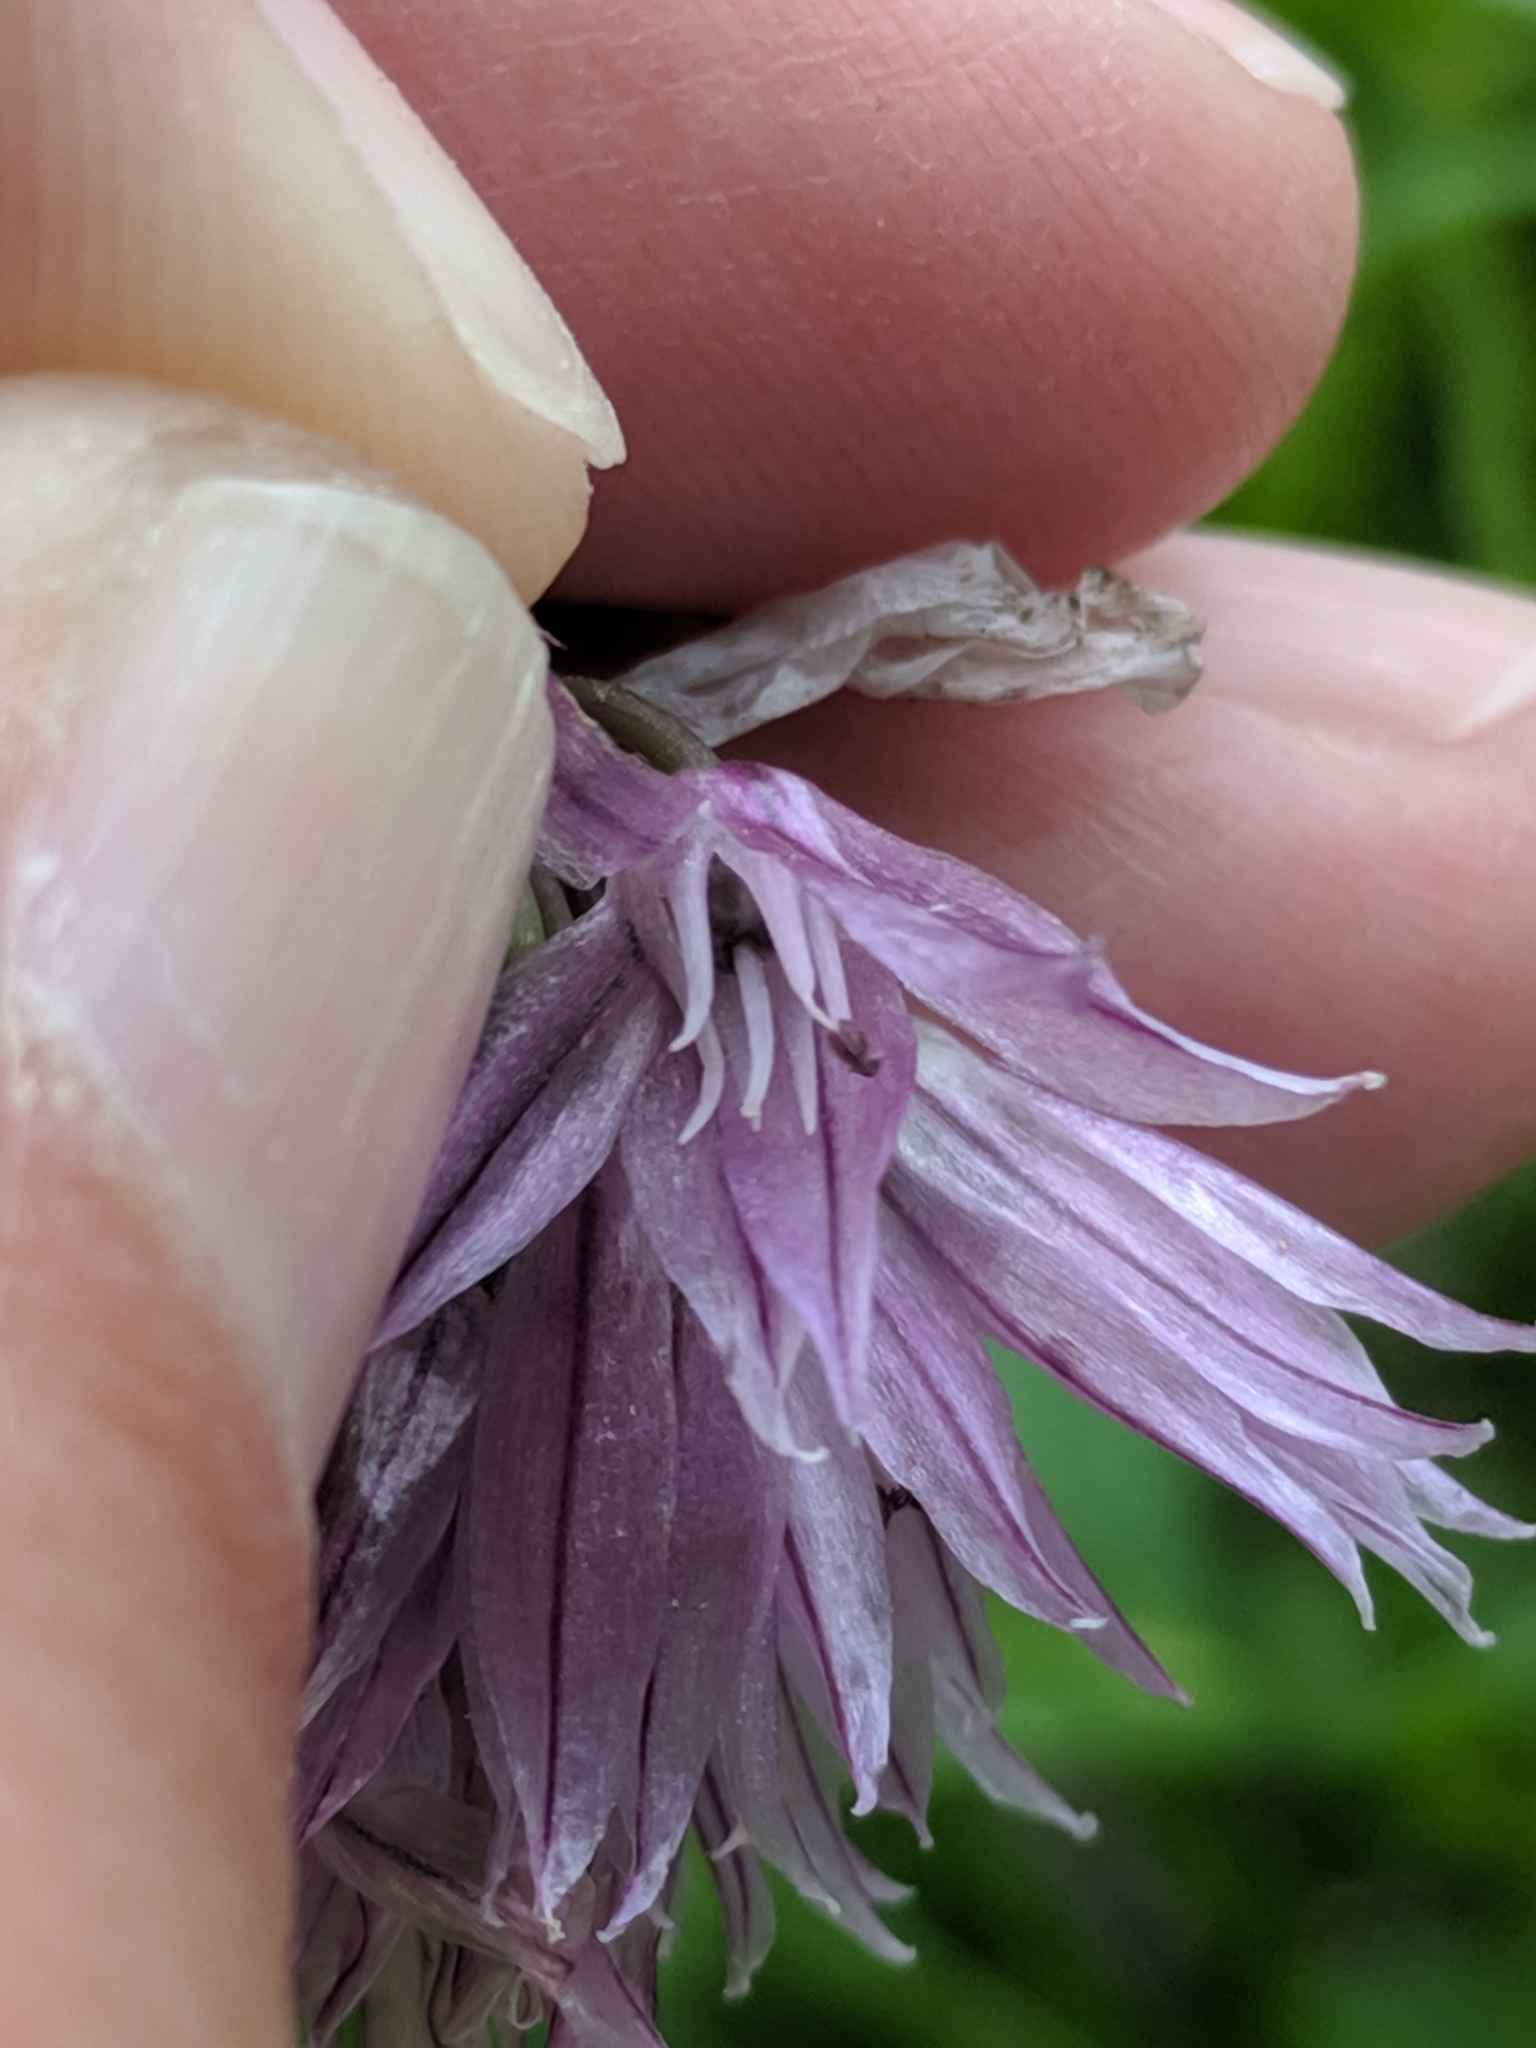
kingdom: Plantae
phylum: Tracheophyta
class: Liliopsida
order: Asparagales
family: Amaryllidaceae
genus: Allium
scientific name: Allium schoenoprasum
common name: Chives
